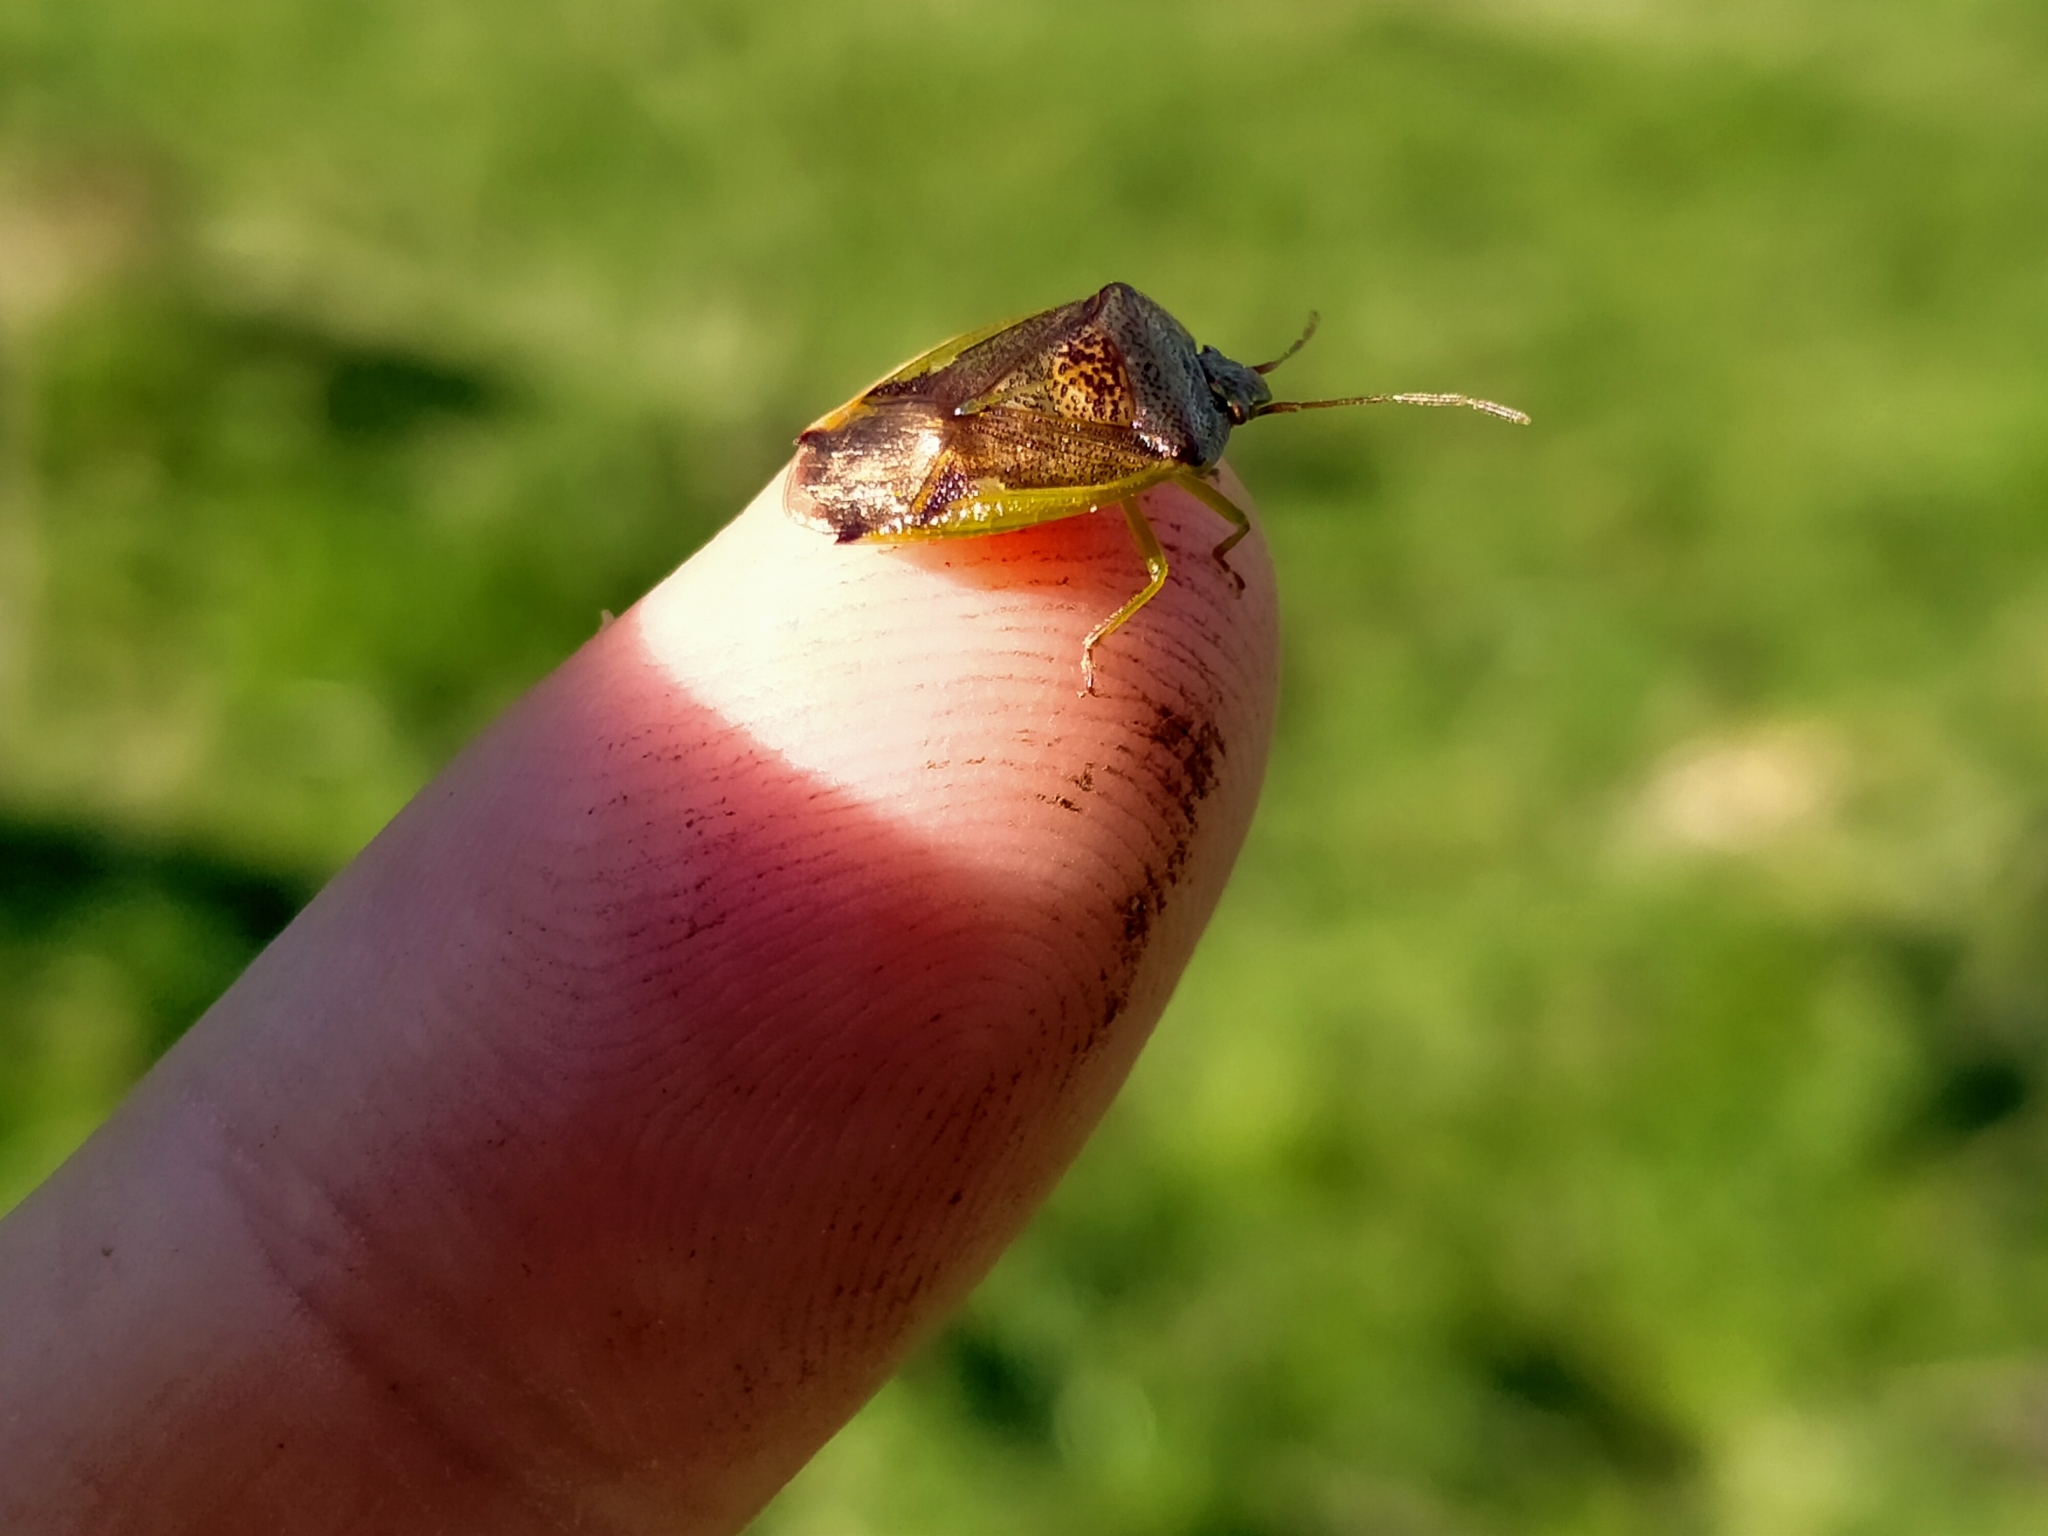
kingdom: Animalia
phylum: Arthropoda
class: Insecta
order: Hemiptera
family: Acanthosomatidae
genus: Oncacontias
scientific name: Oncacontias vittatus
